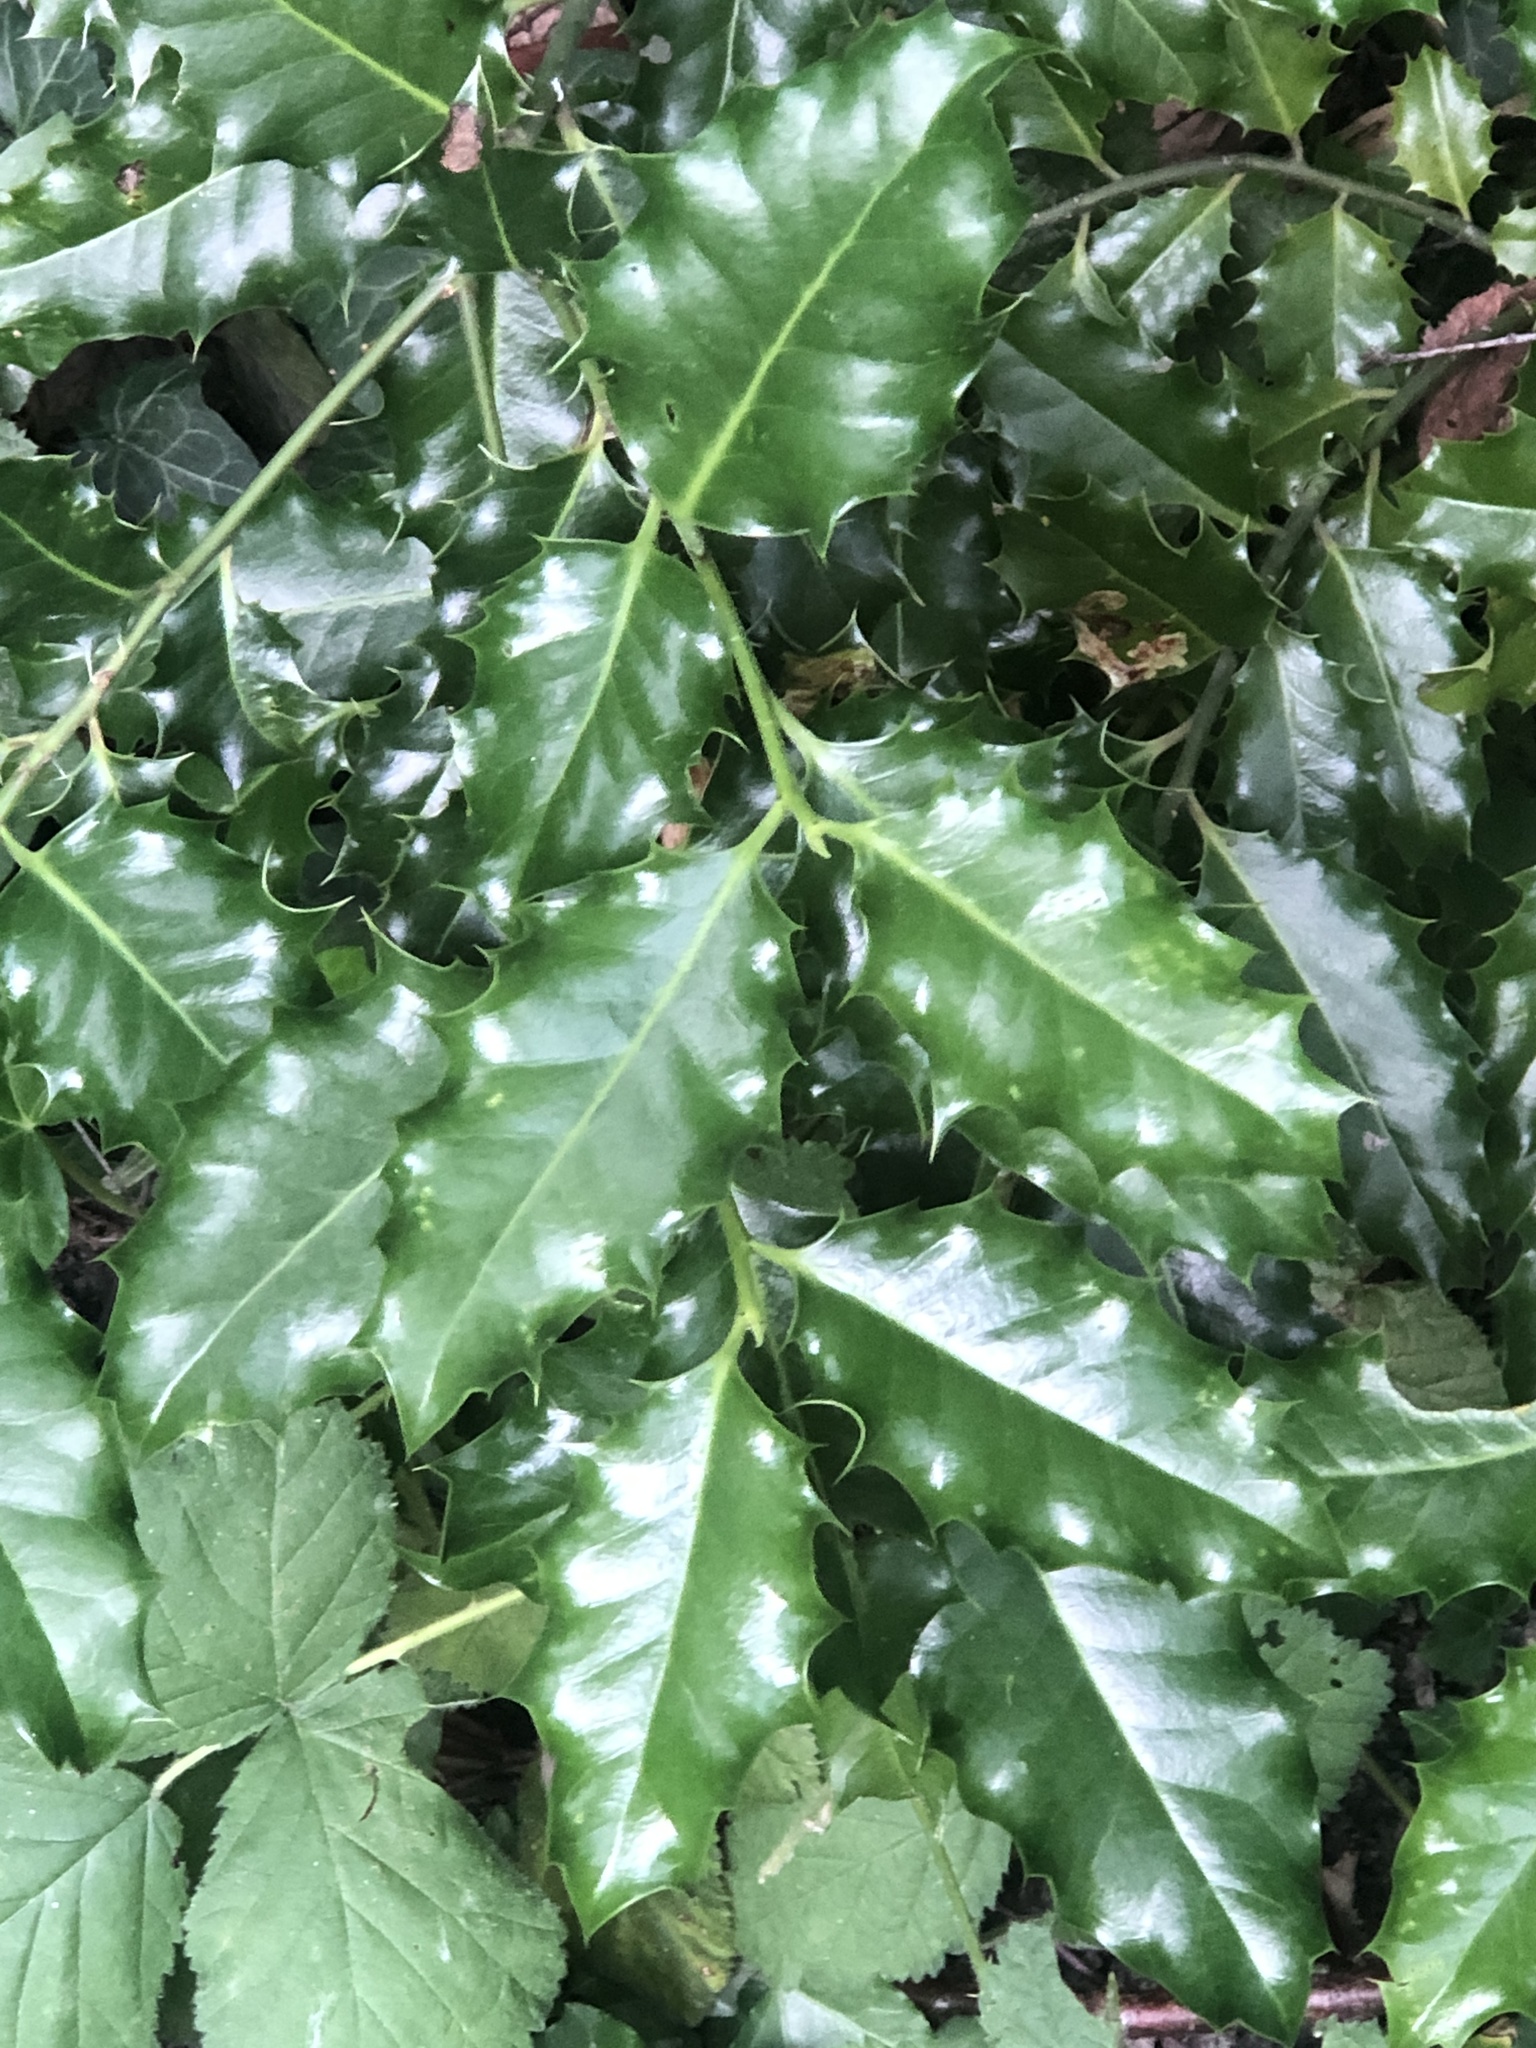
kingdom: Plantae
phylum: Tracheophyta
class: Magnoliopsida
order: Aquifoliales
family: Aquifoliaceae
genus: Ilex
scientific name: Ilex aquifolium
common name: English holly
